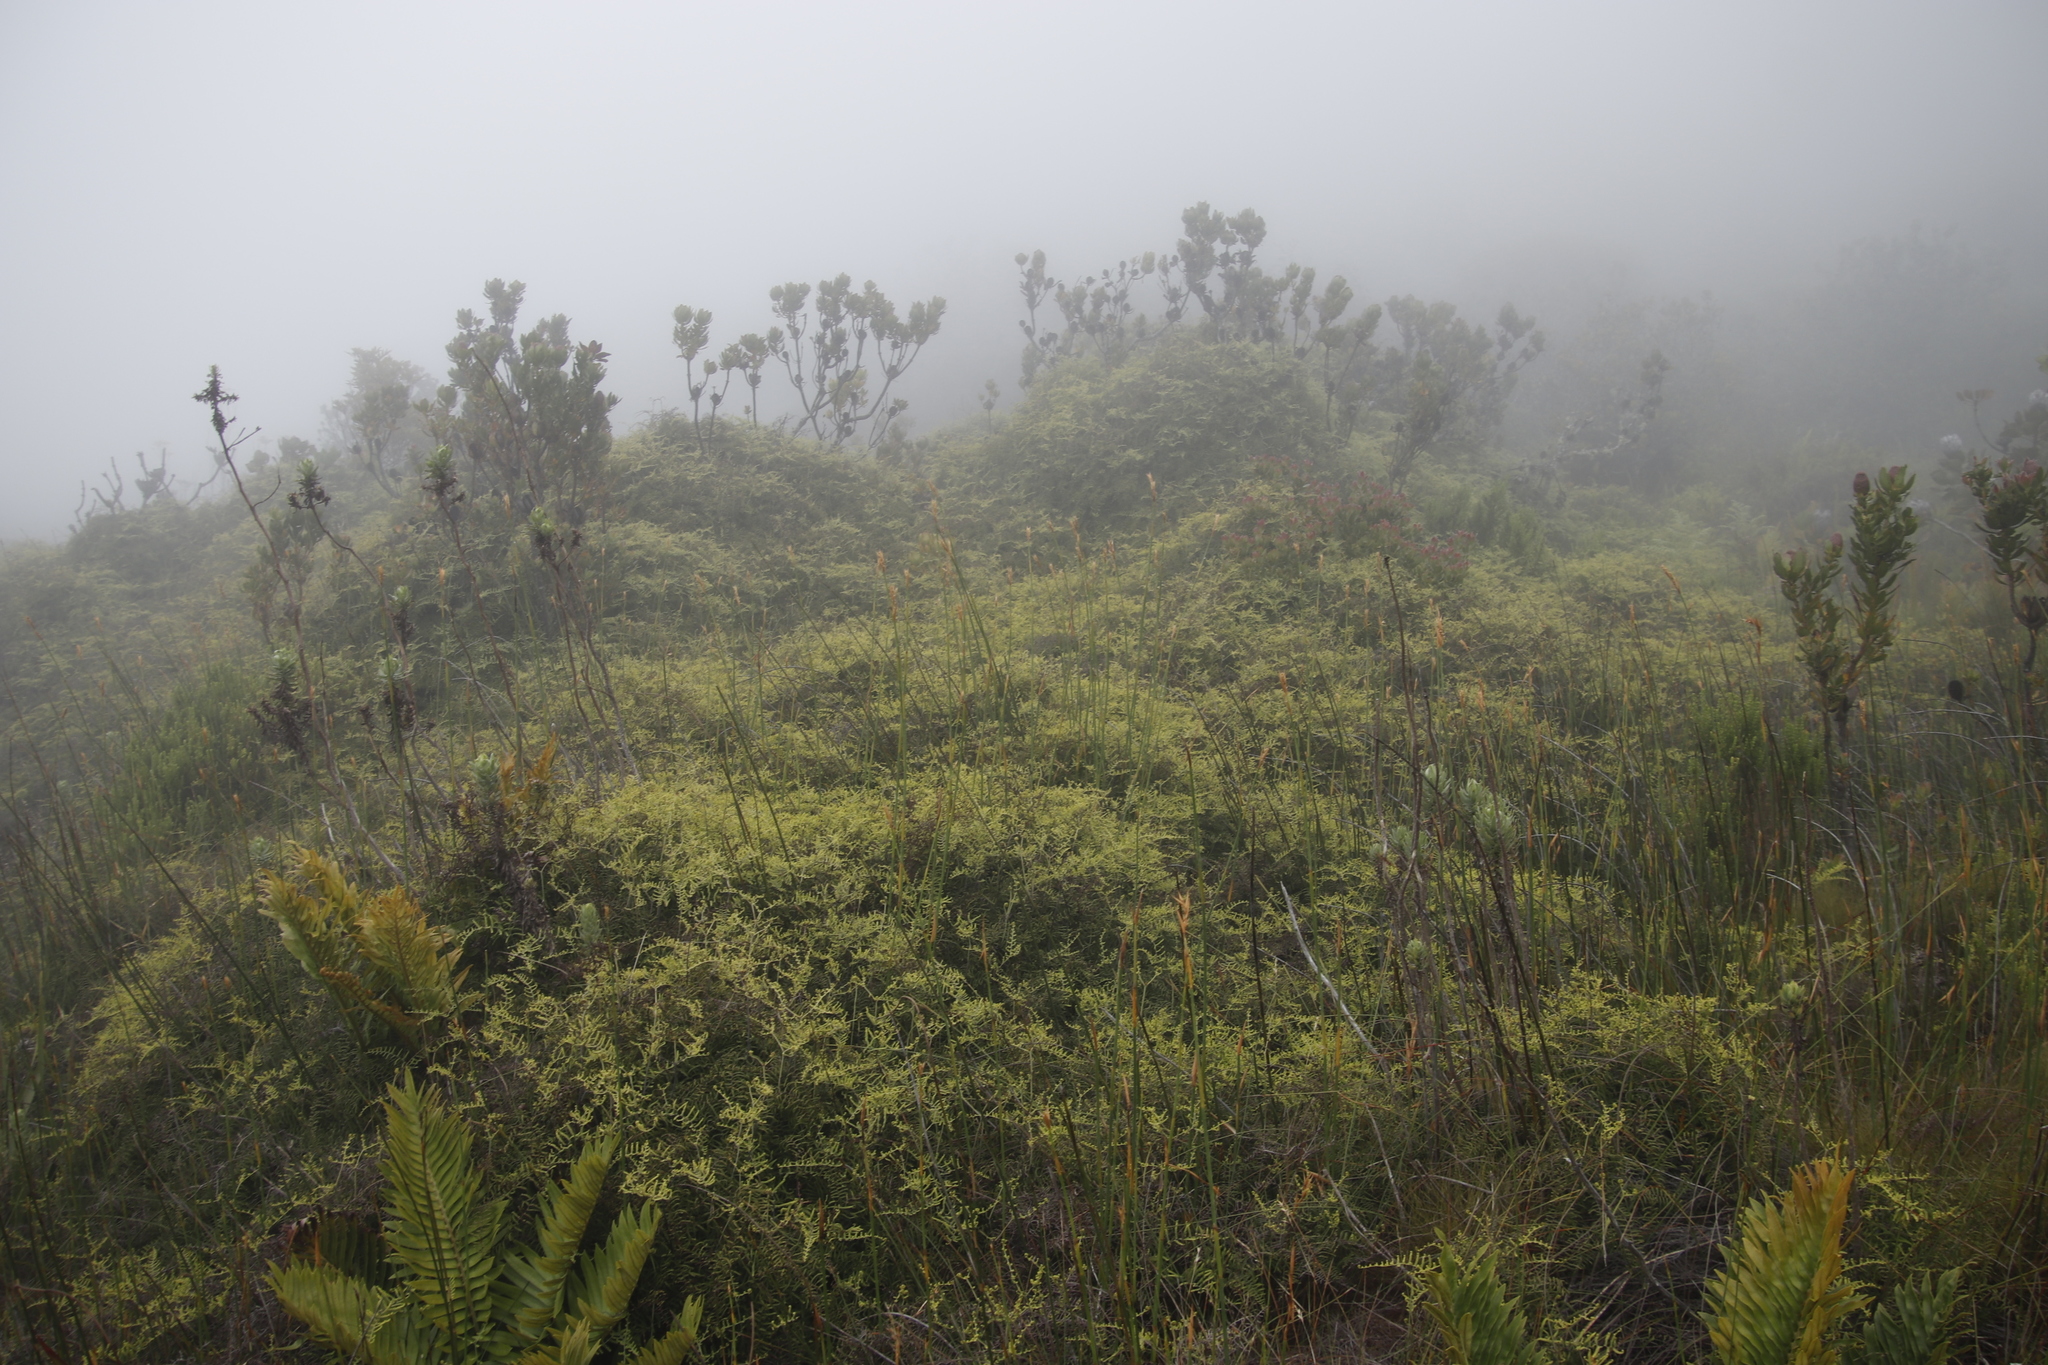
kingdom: Plantae
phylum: Tracheophyta
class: Polypodiopsida
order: Gleicheniales
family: Gleicheniaceae
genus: Gleichenia
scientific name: Gleichenia polypodioides
